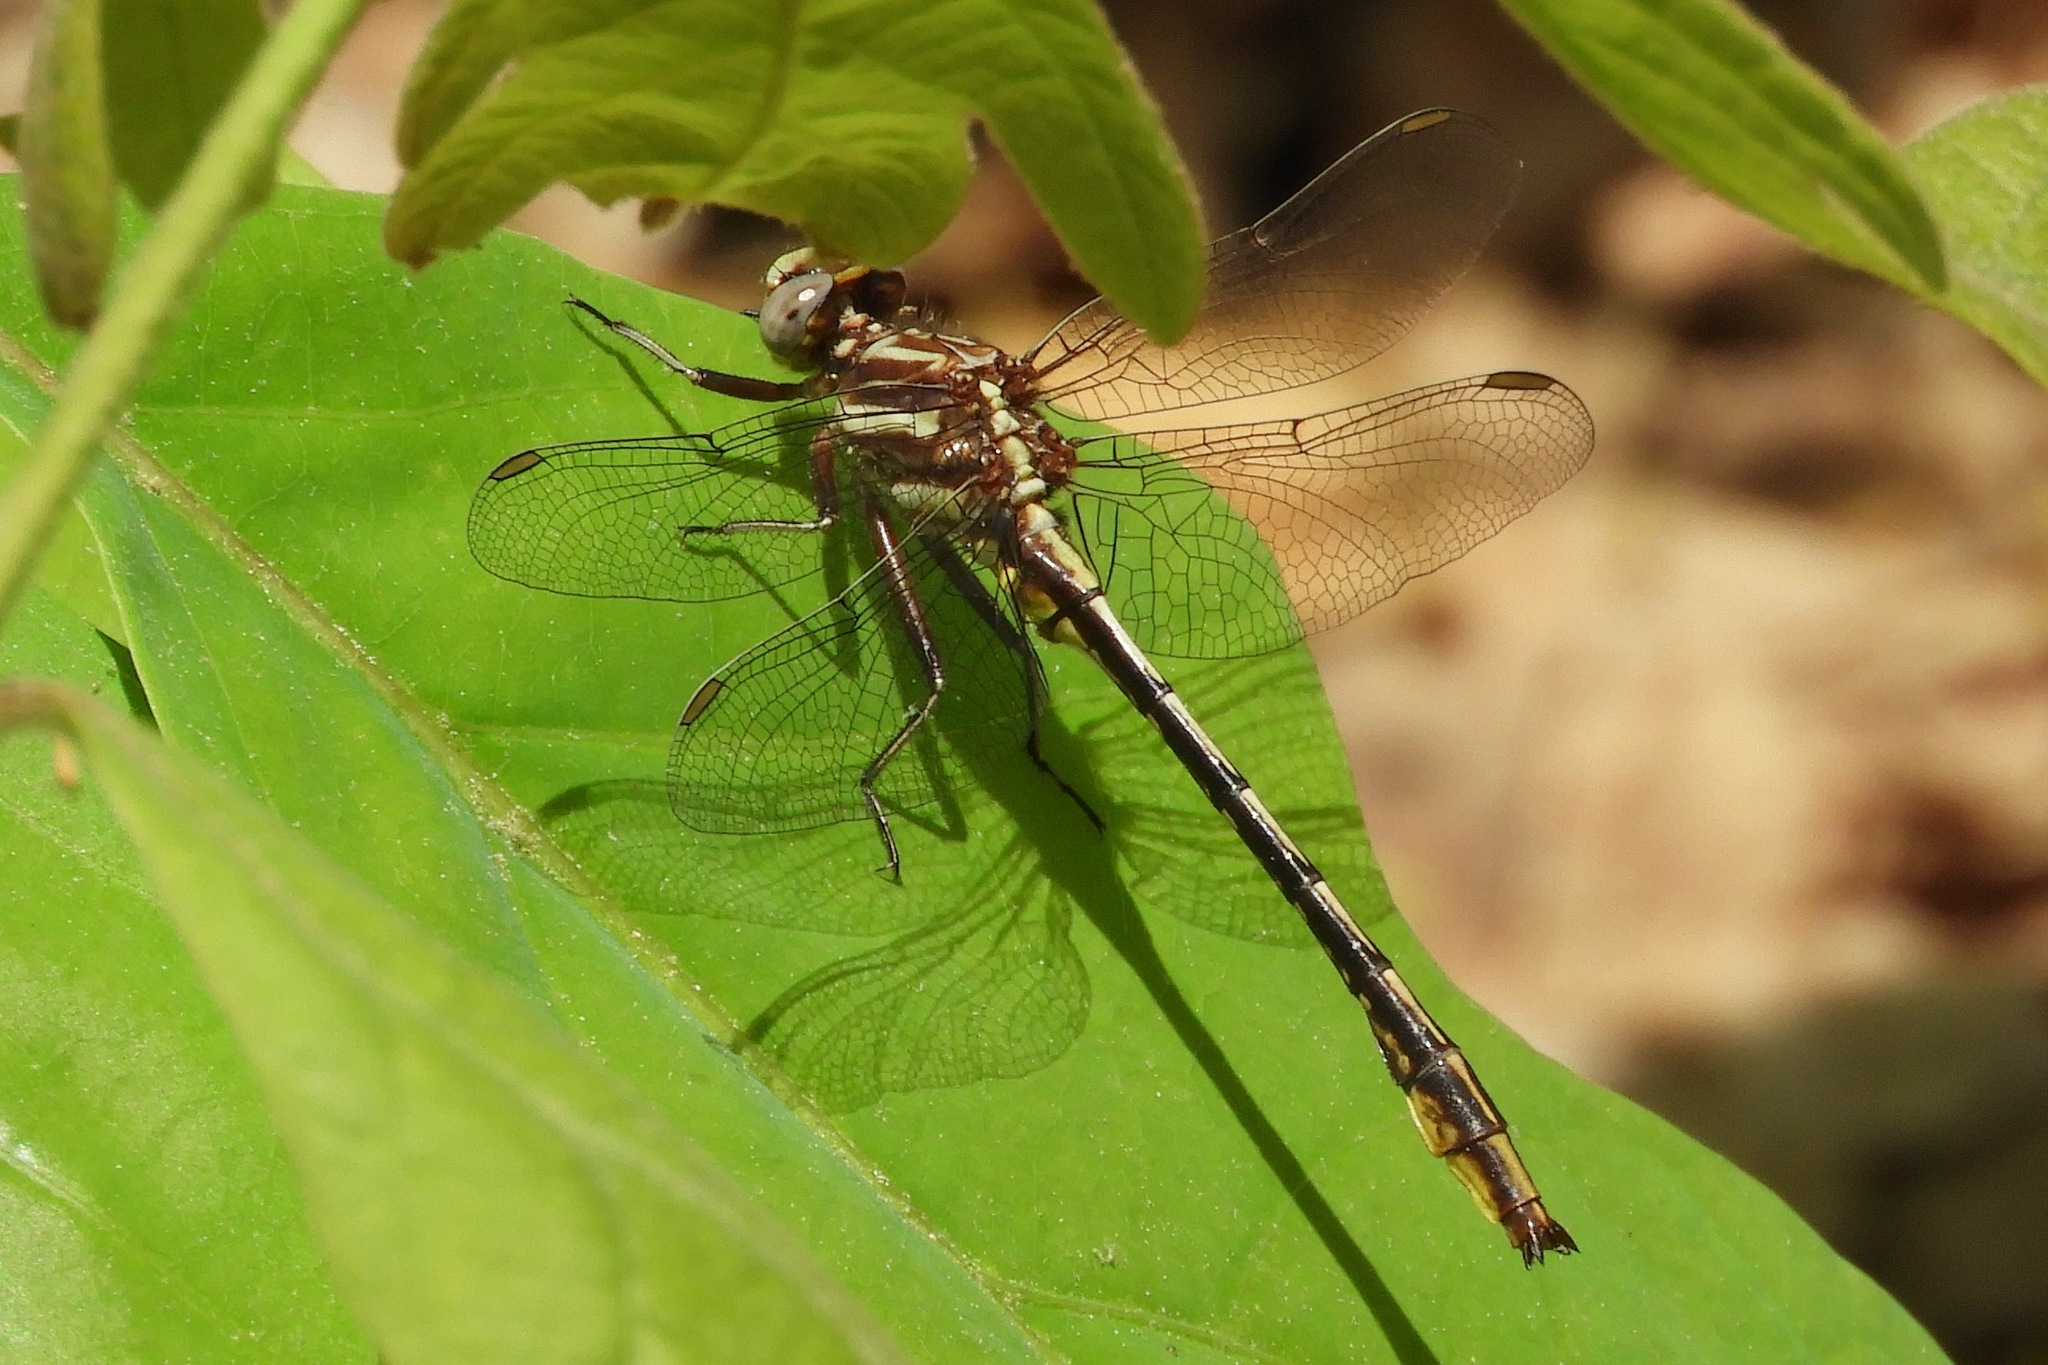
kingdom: Animalia
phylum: Arthropoda
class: Insecta
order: Odonata
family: Gomphidae
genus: Phanogomphus
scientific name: Phanogomphus exilis
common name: Lancet clubtail
